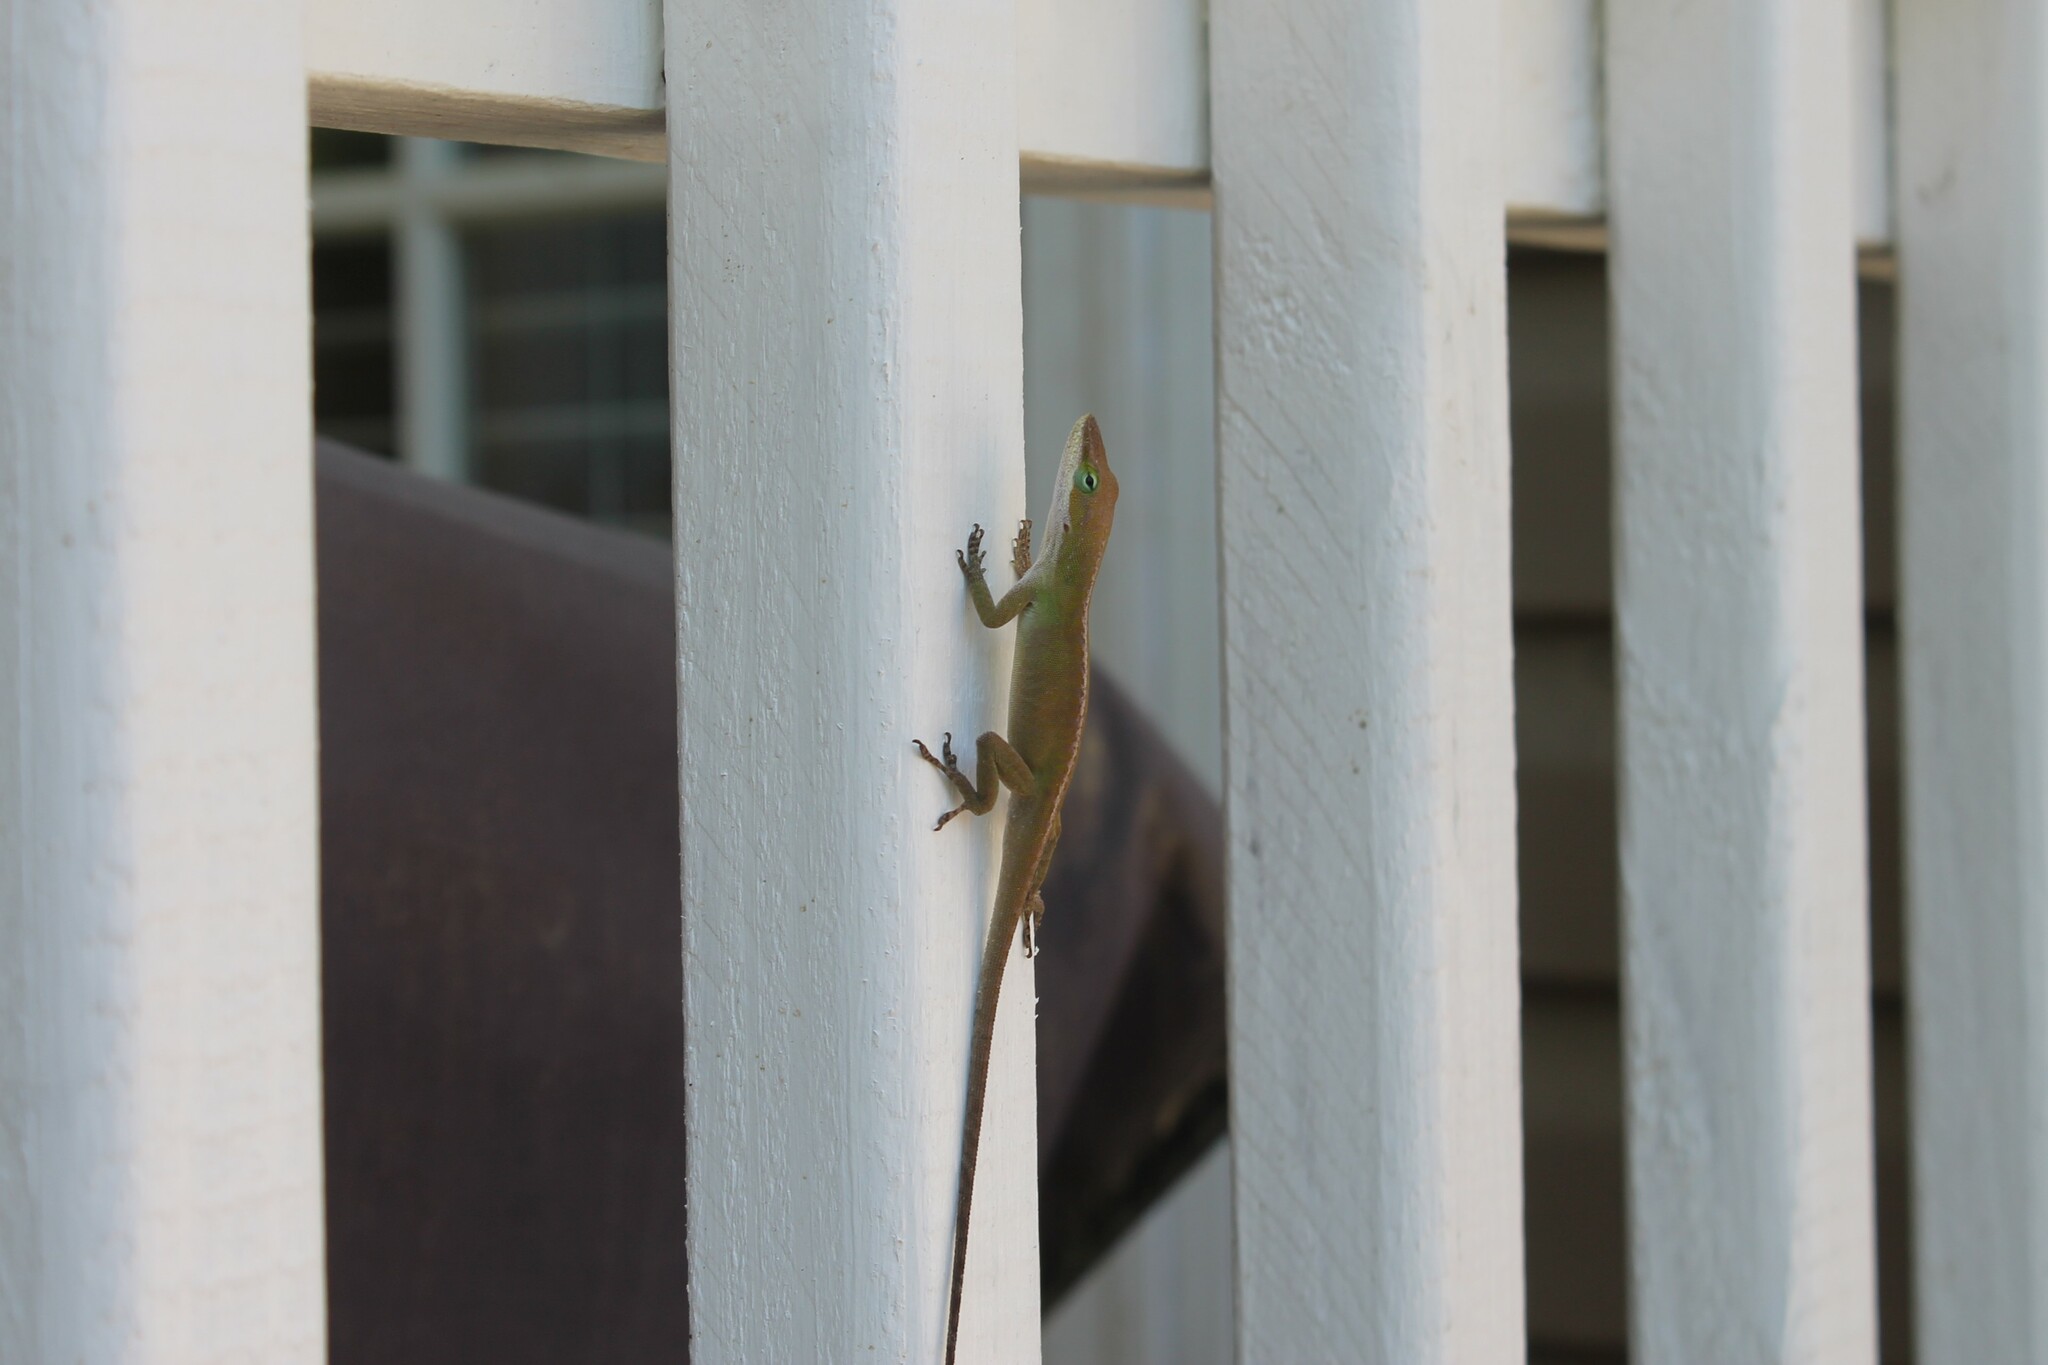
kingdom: Animalia
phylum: Chordata
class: Squamata
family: Dactyloidae
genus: Anolis
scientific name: Anolis carolinensis
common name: Green anole
